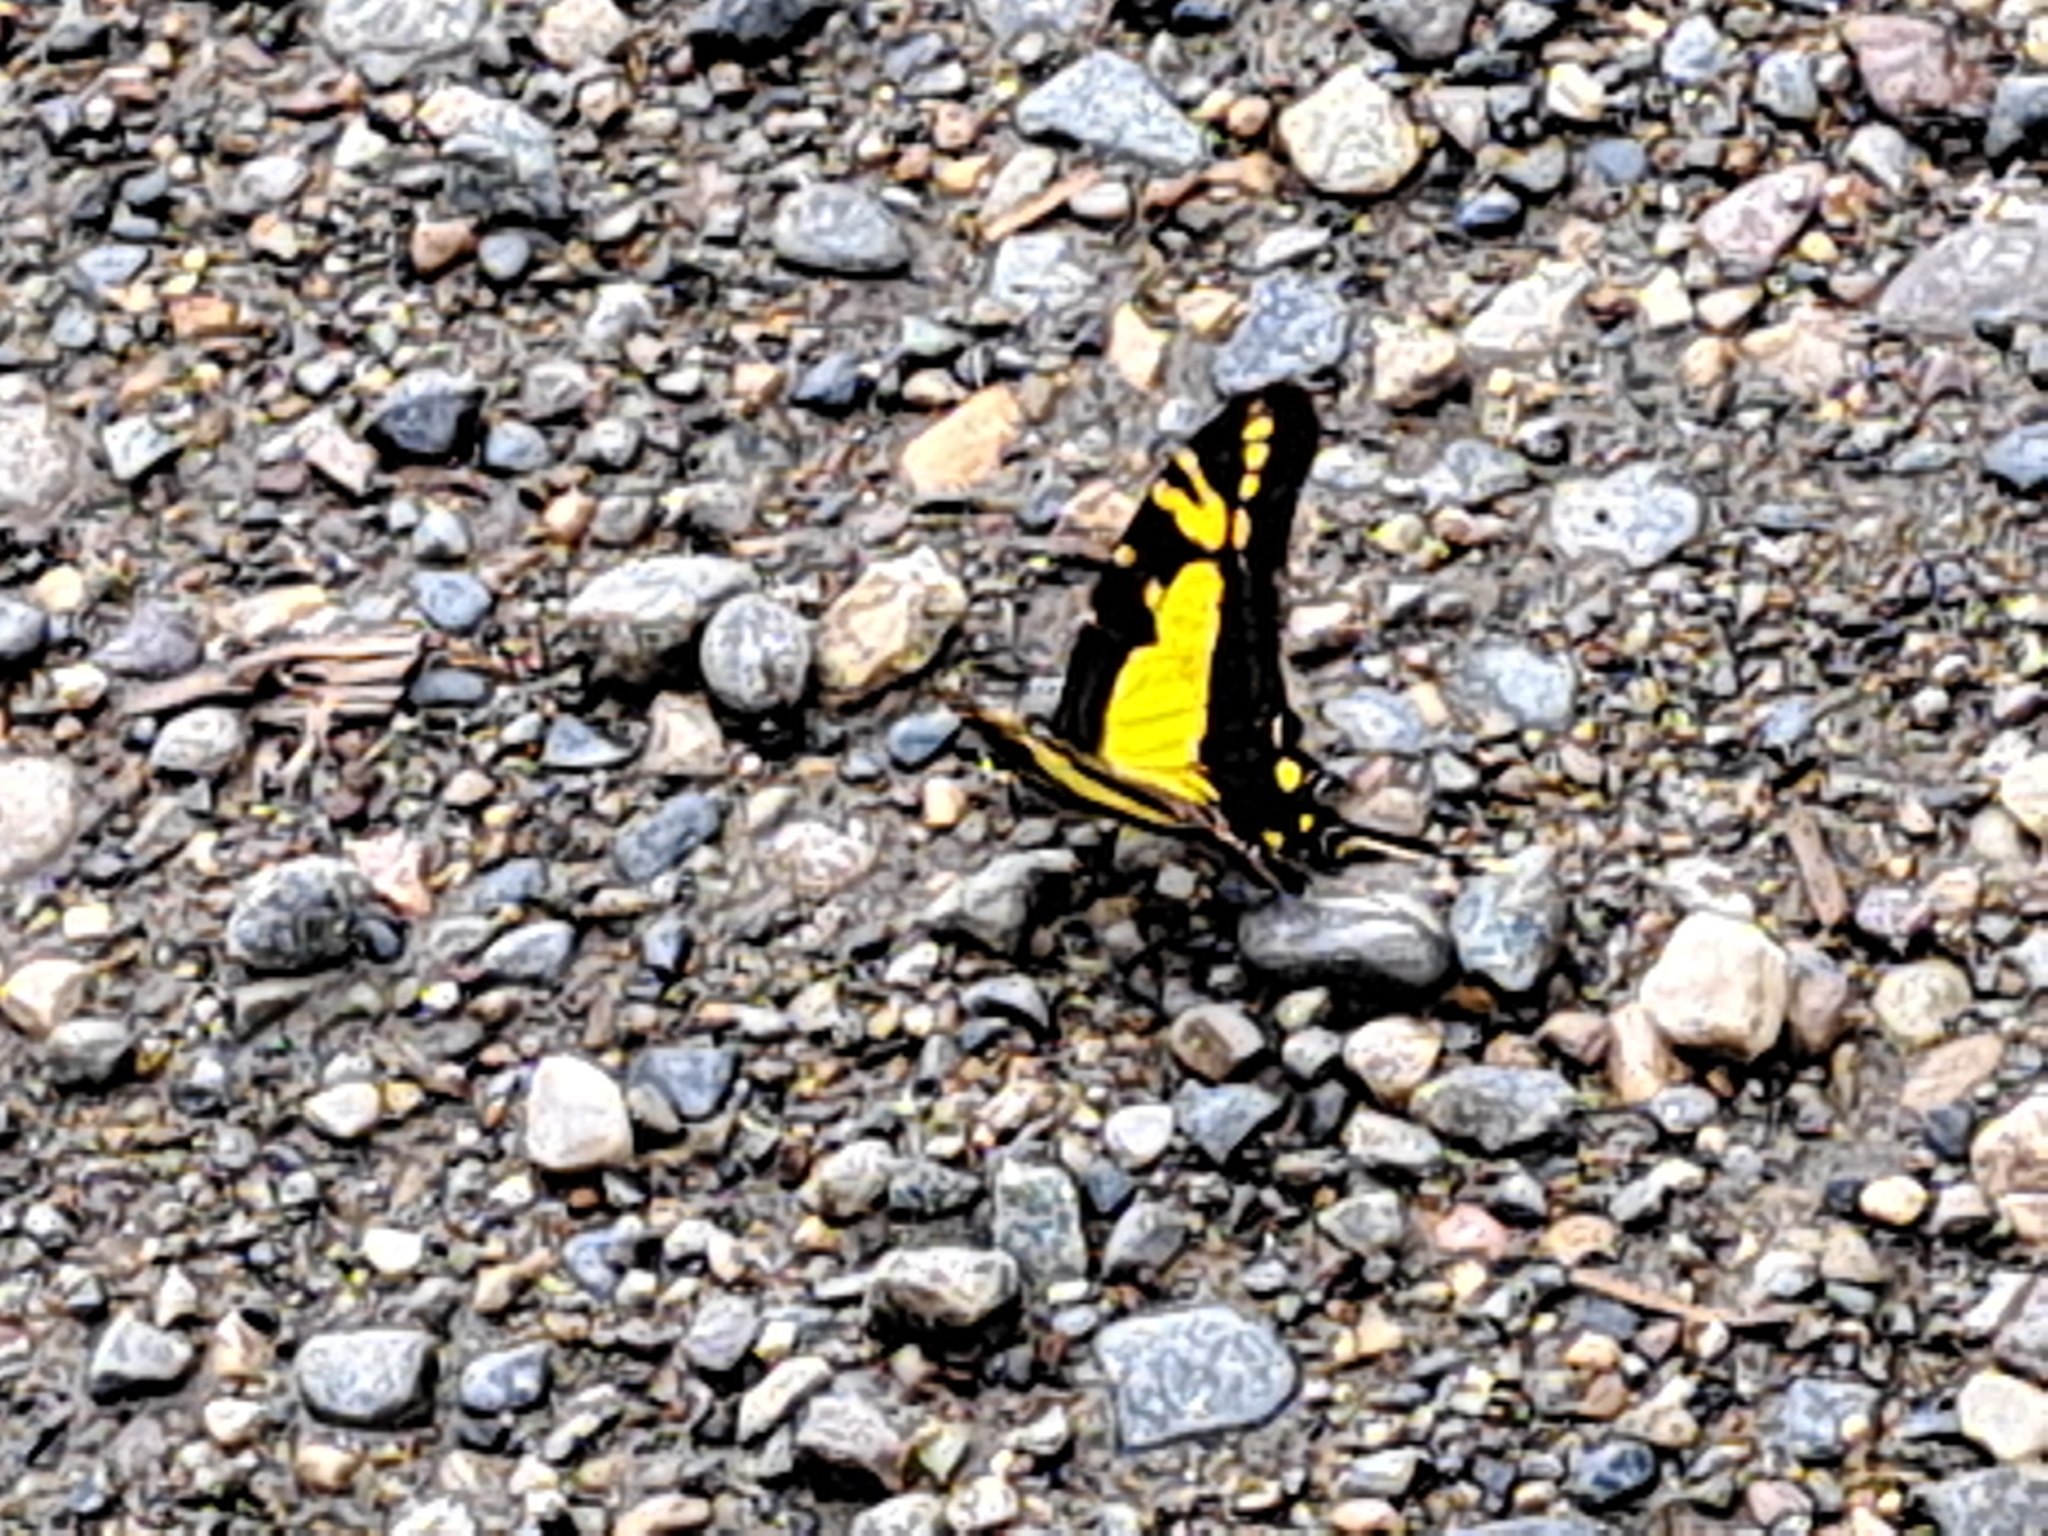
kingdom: Animalia
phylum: Arthropoda
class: Insecta
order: Lepidoptera
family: Papilionidae
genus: Eurytides
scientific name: Eurytides
